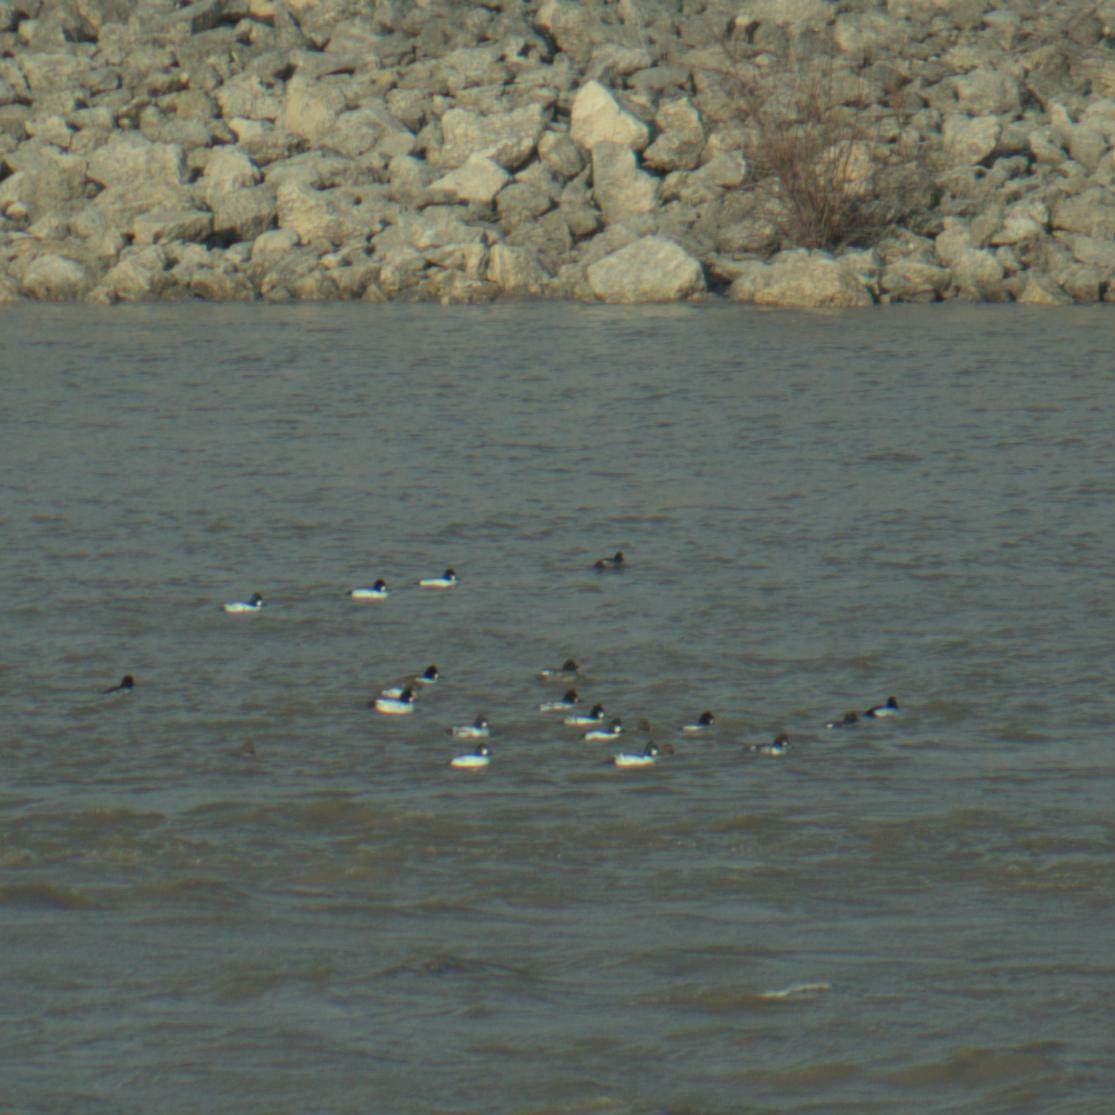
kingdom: Animalia
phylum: Chordata
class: Aves
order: Anseriformes
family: Anatidae
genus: Bucephala
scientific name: Bucephala clangula
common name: Common goldeneye
